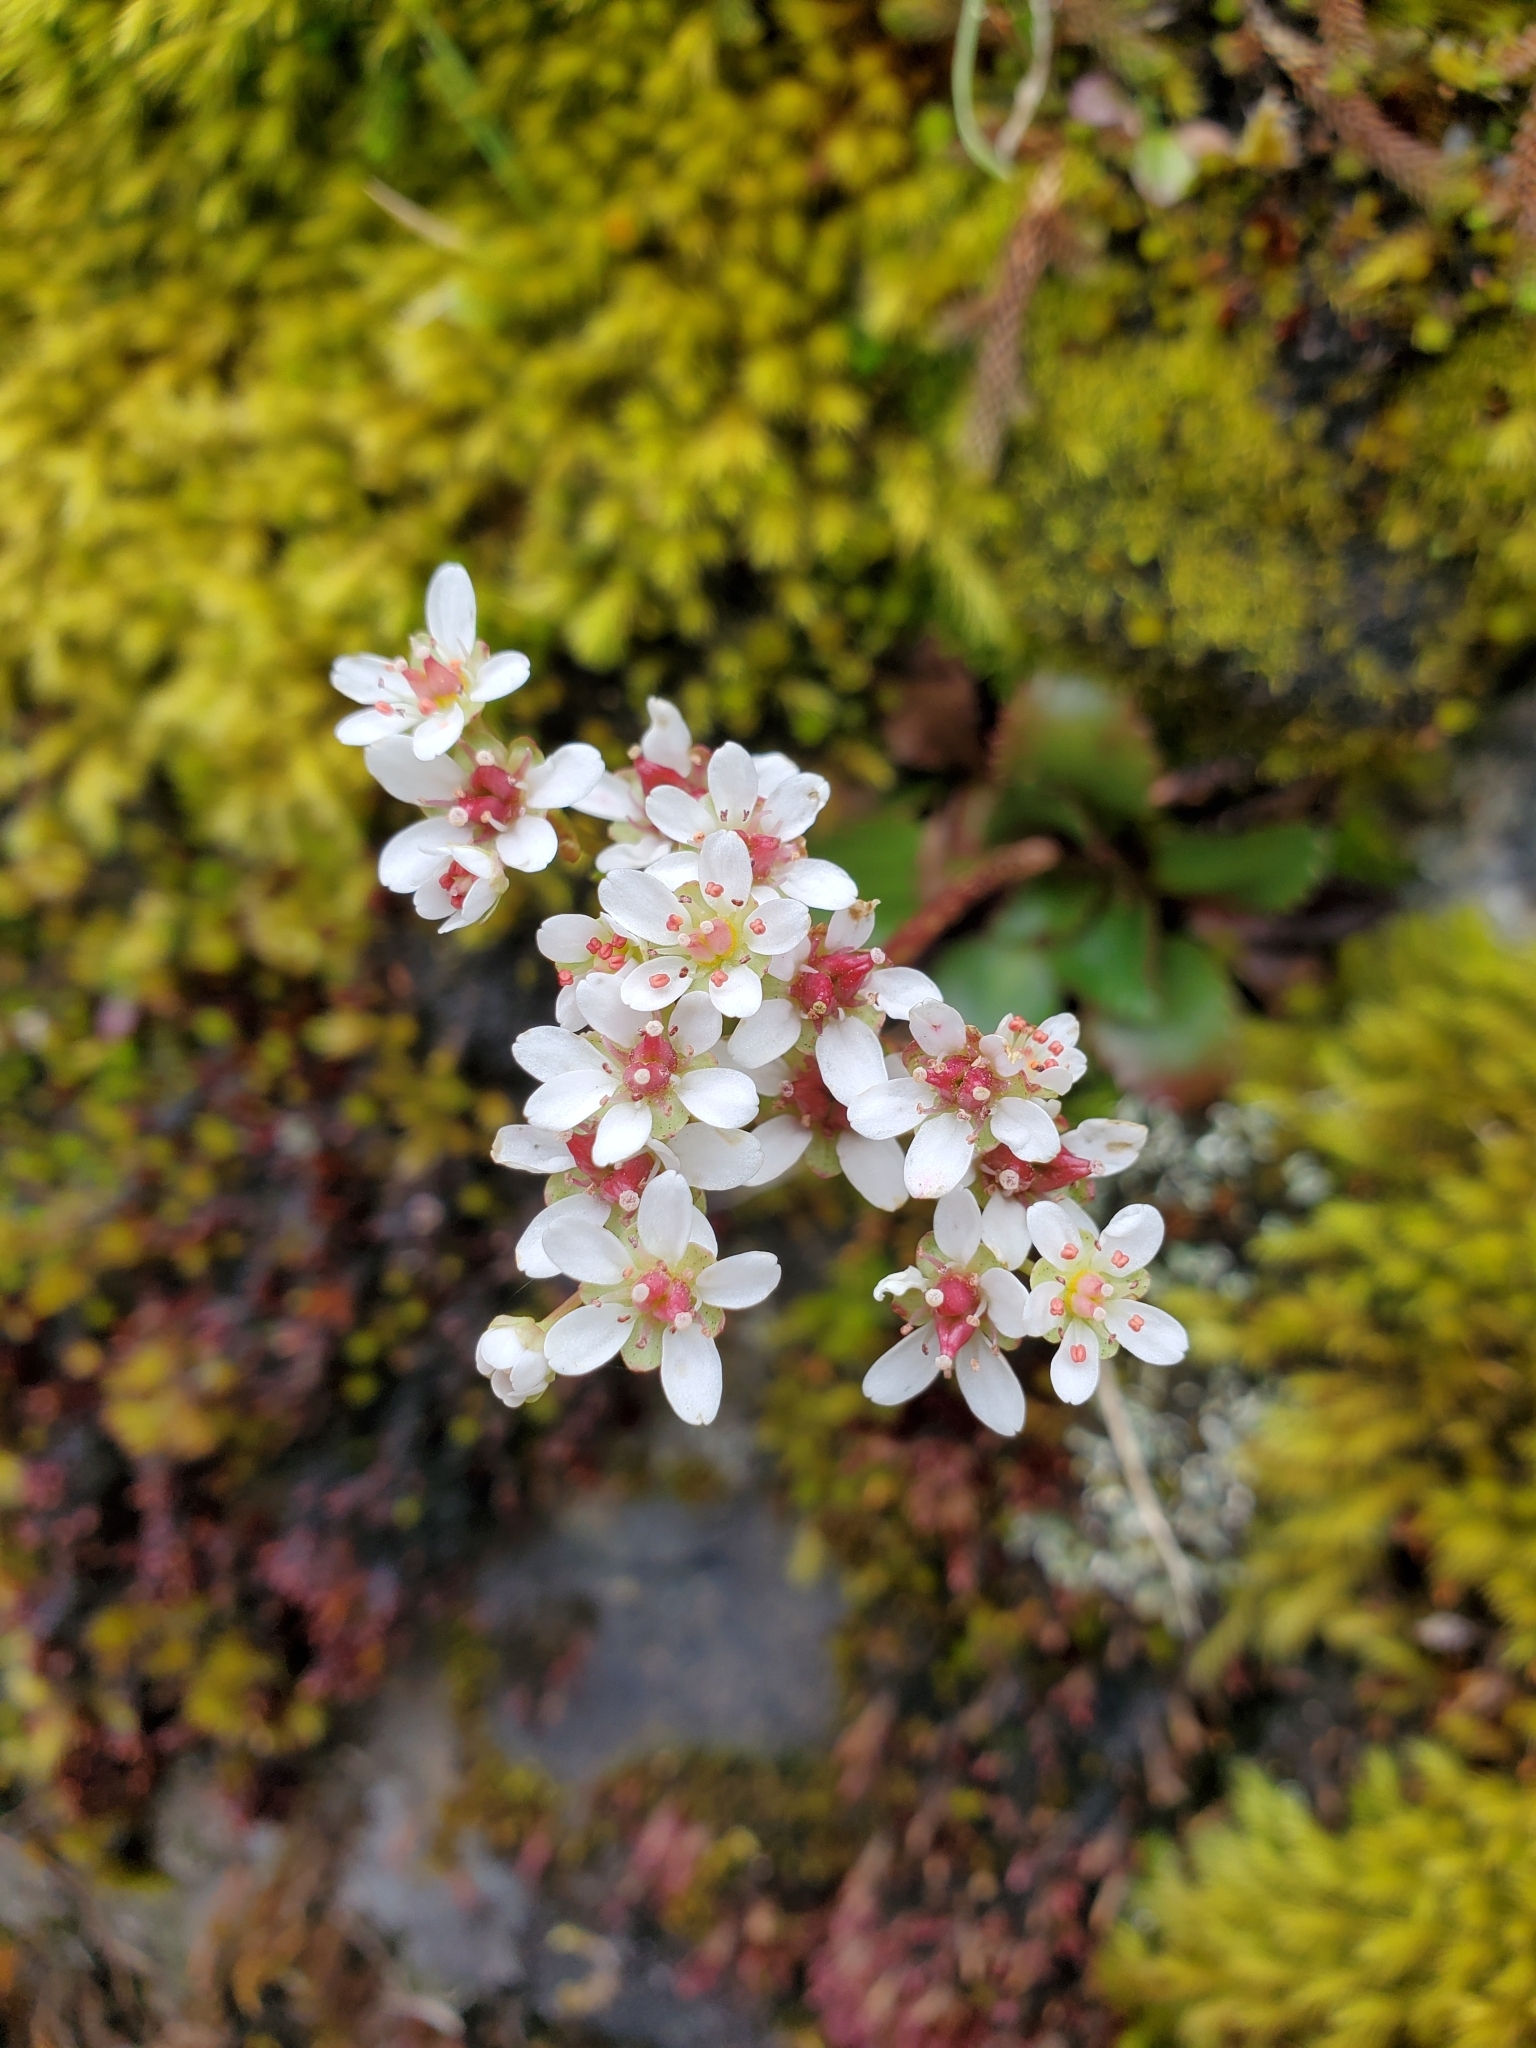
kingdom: Plantae
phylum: Tracheophyta
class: Magnoliopsida
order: Saxifragales
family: Saxifragaceae
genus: Micranthes
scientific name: Micranthes rufidula
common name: Rustyhair saxifrage
